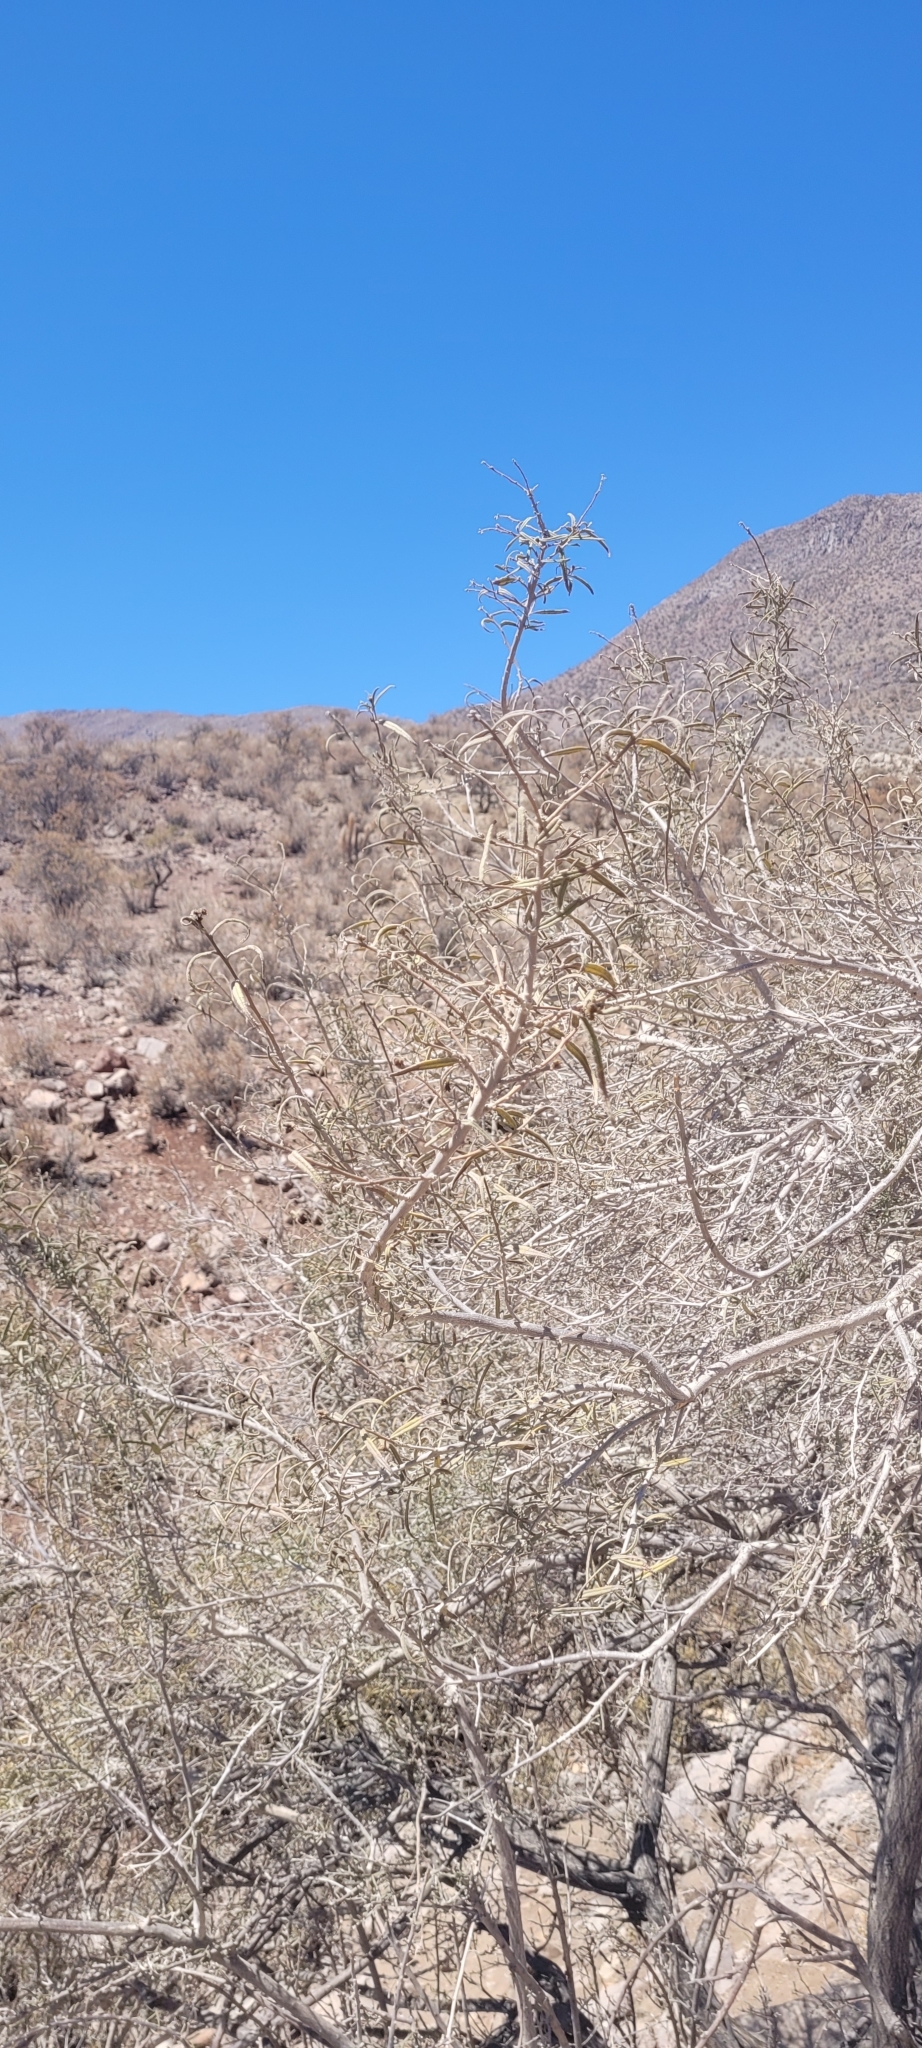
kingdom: Plantae
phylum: Tracheophyta
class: Magnoliopsida
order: Boraginales
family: Cordiaceae
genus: Cordia
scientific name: Cordia decandra
